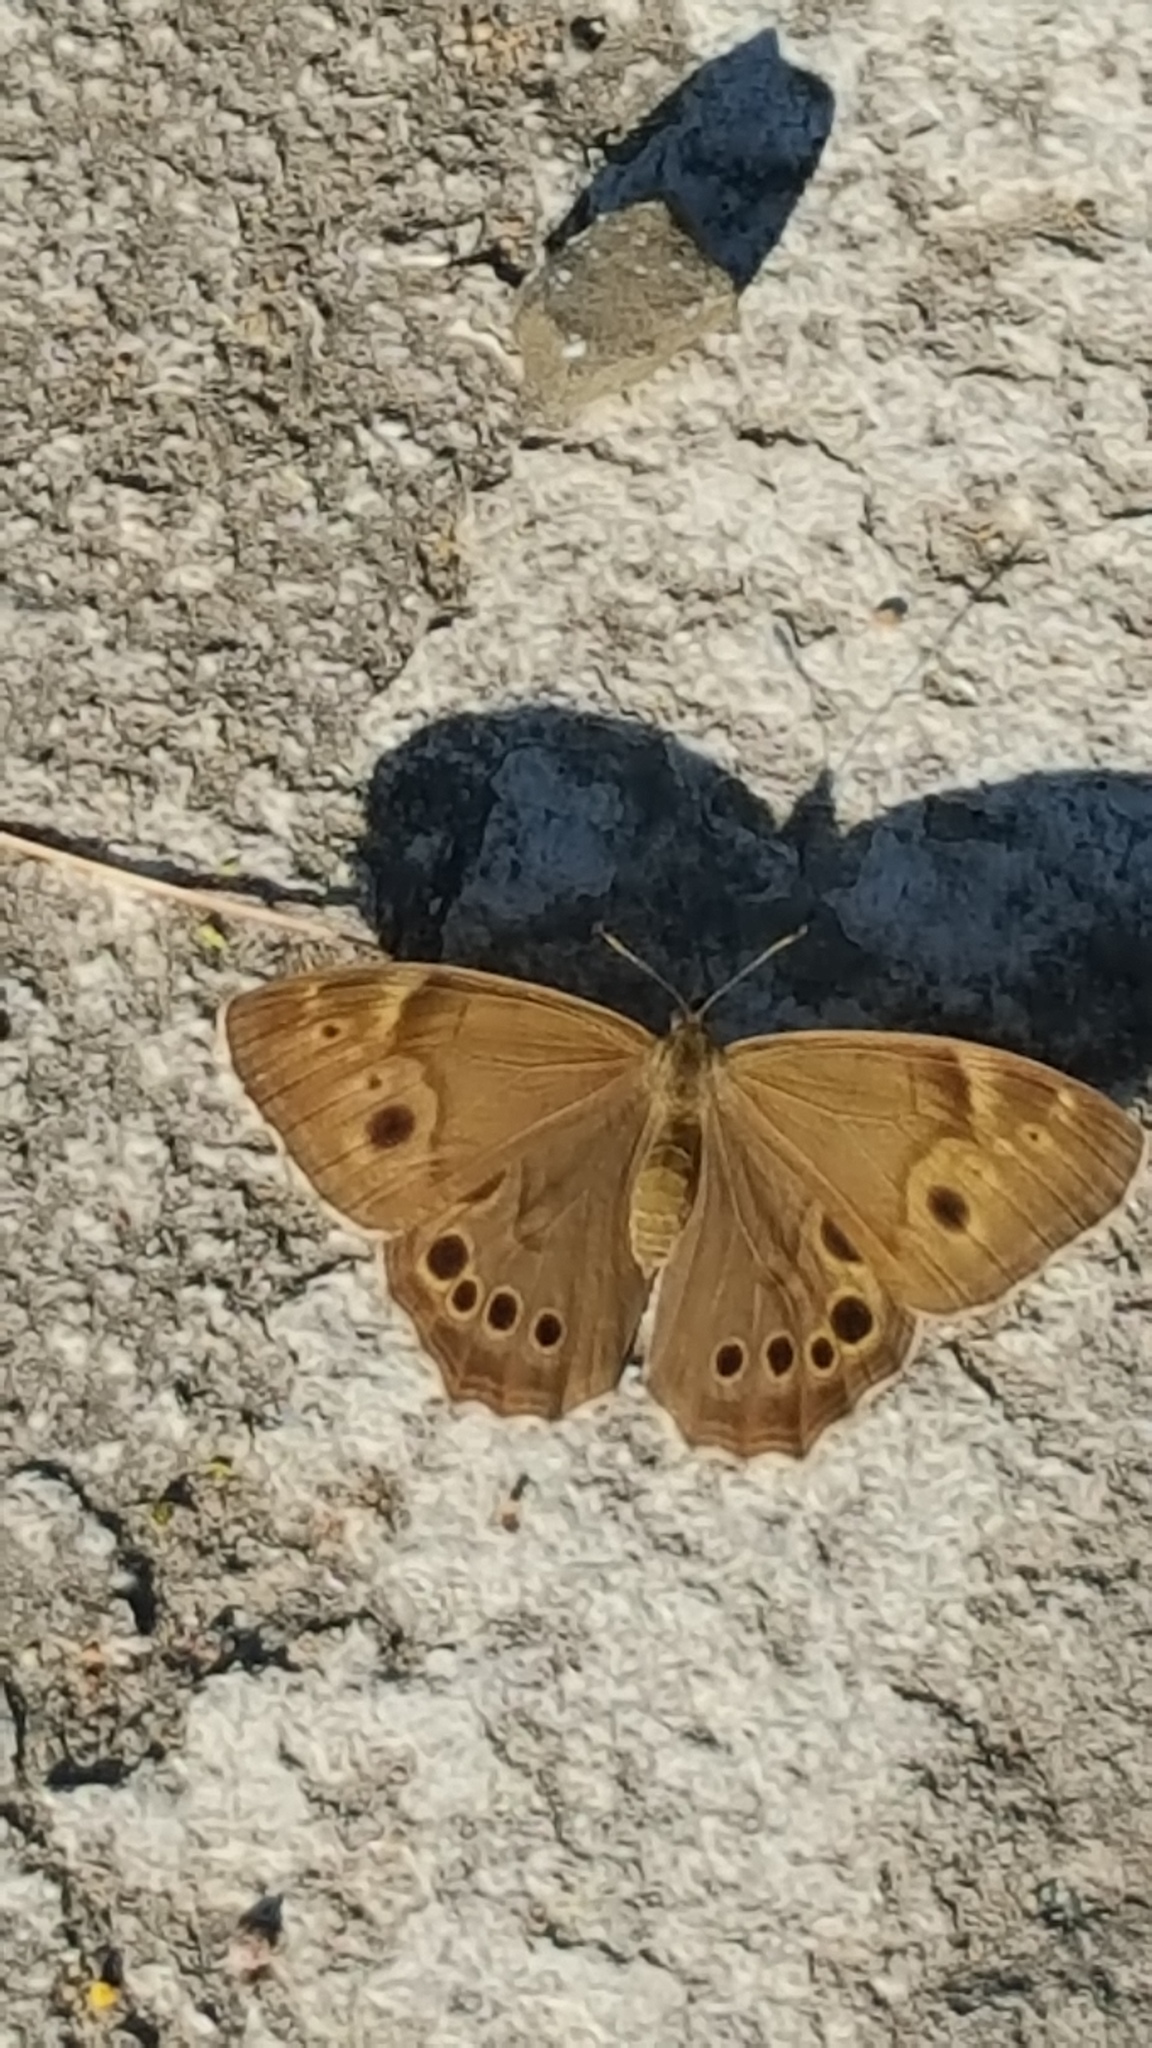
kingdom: Animalia
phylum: Arthropoda
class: Insecta
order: Lepidoptera
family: Nymphalidae
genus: Lethe
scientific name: Lethe anthedon
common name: Northern pearly-eye
